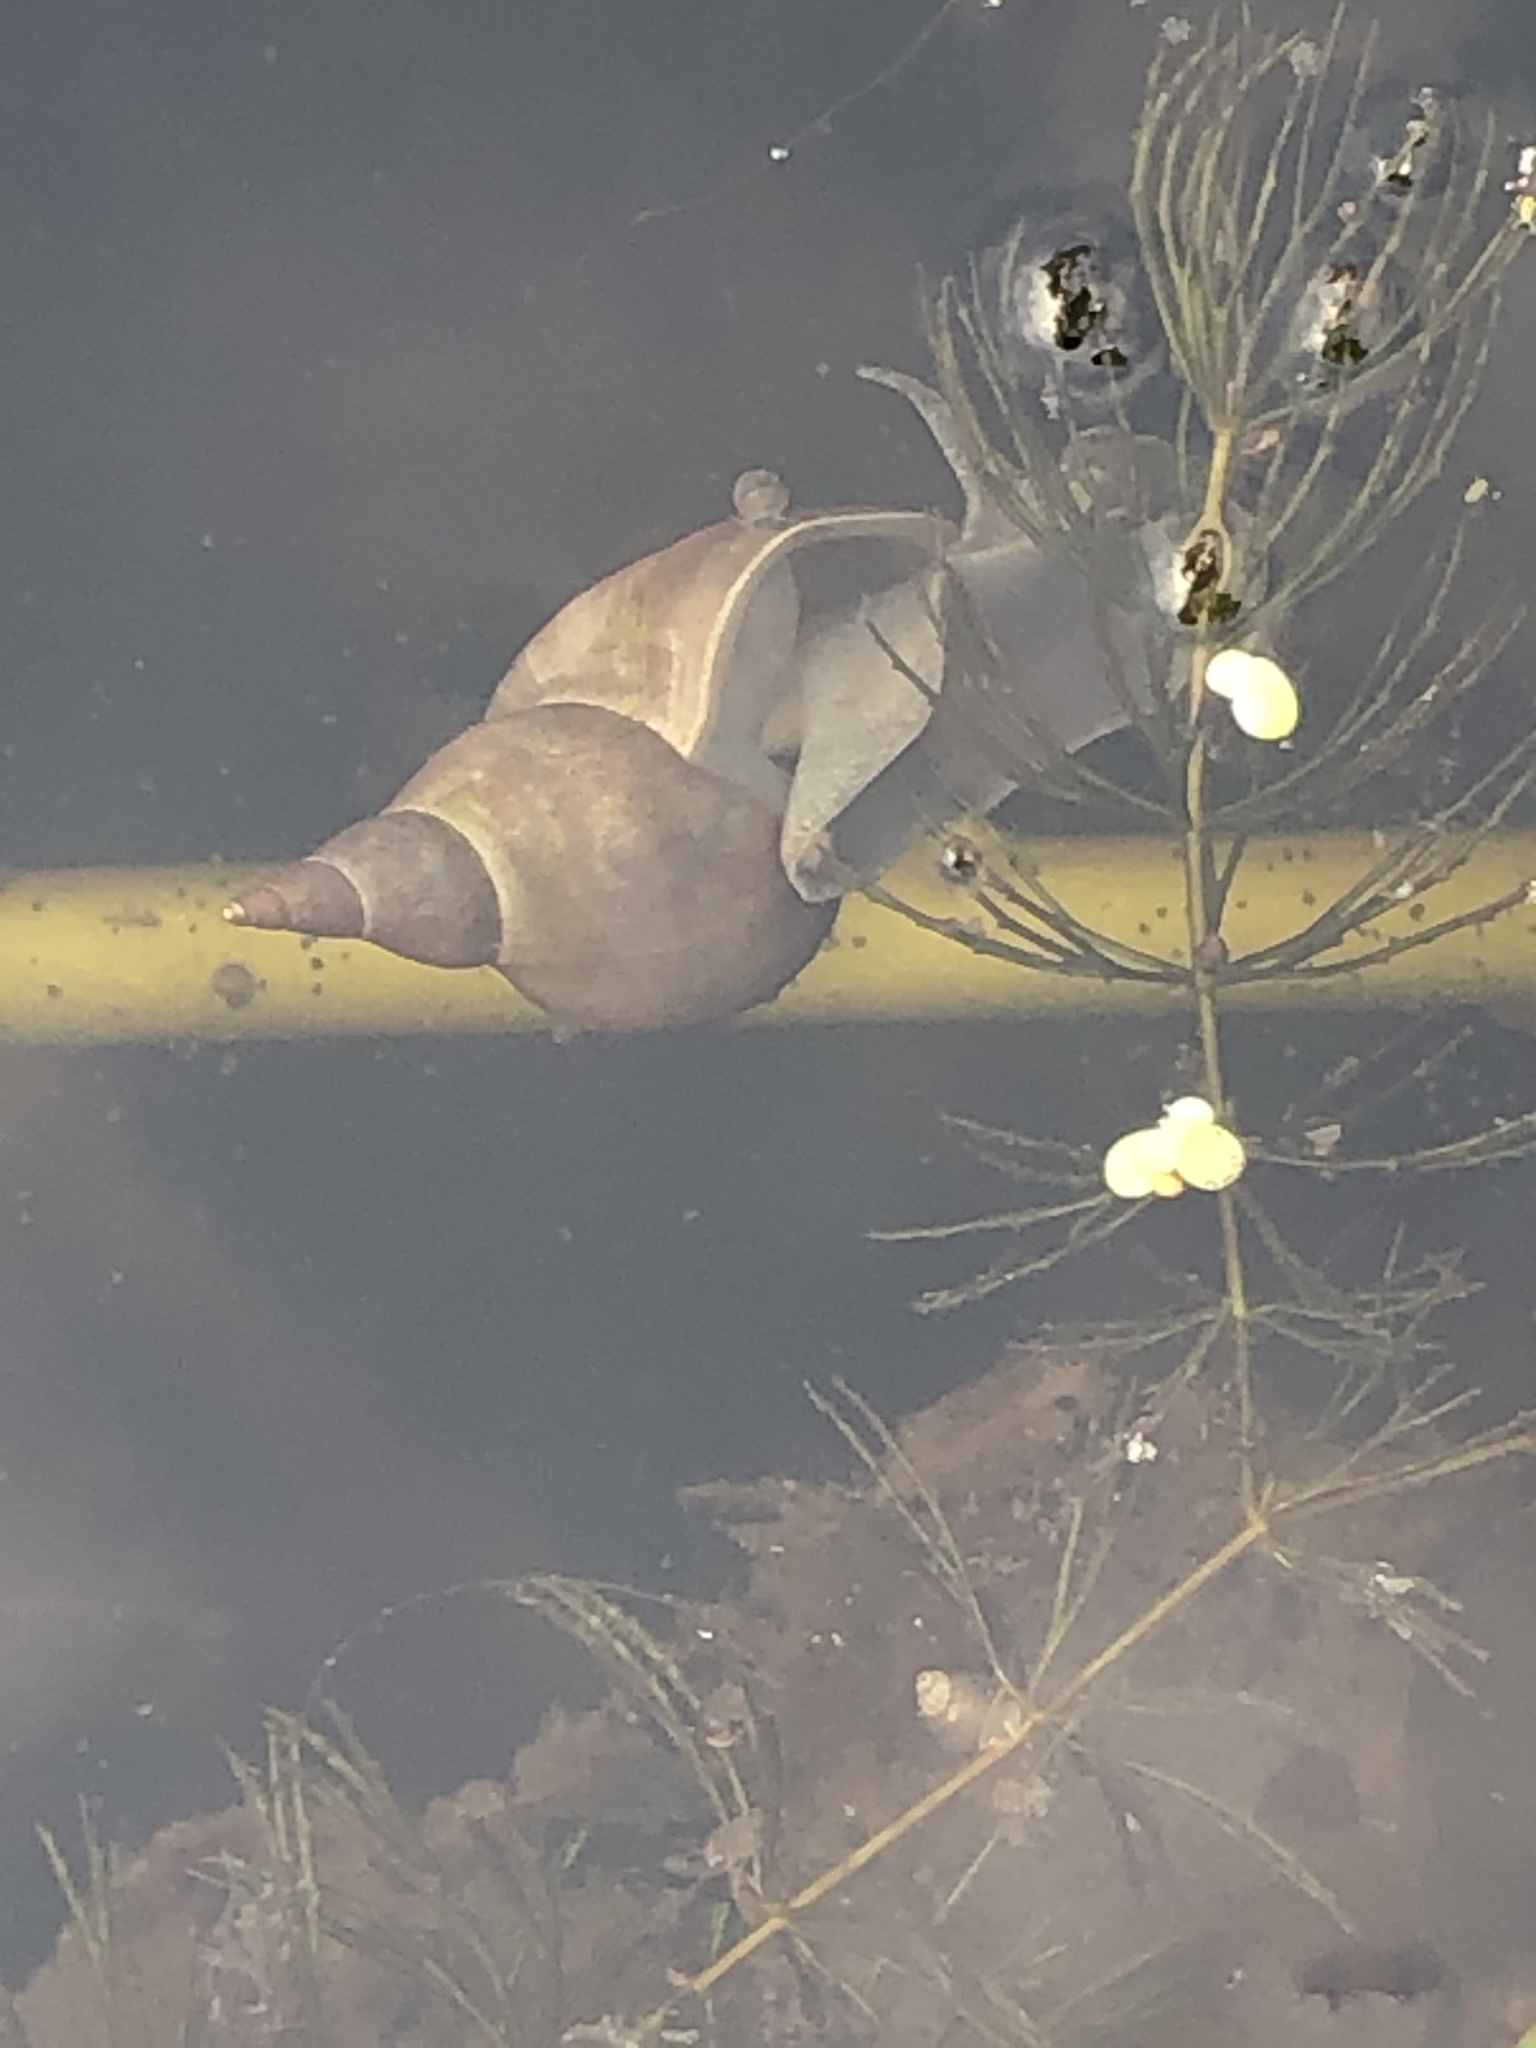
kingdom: Animalia
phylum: Mollusca
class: Gastropoda
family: Lymnaeidae
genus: Lymnaea
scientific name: Lymnaea stagnalis
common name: Great pond snail
